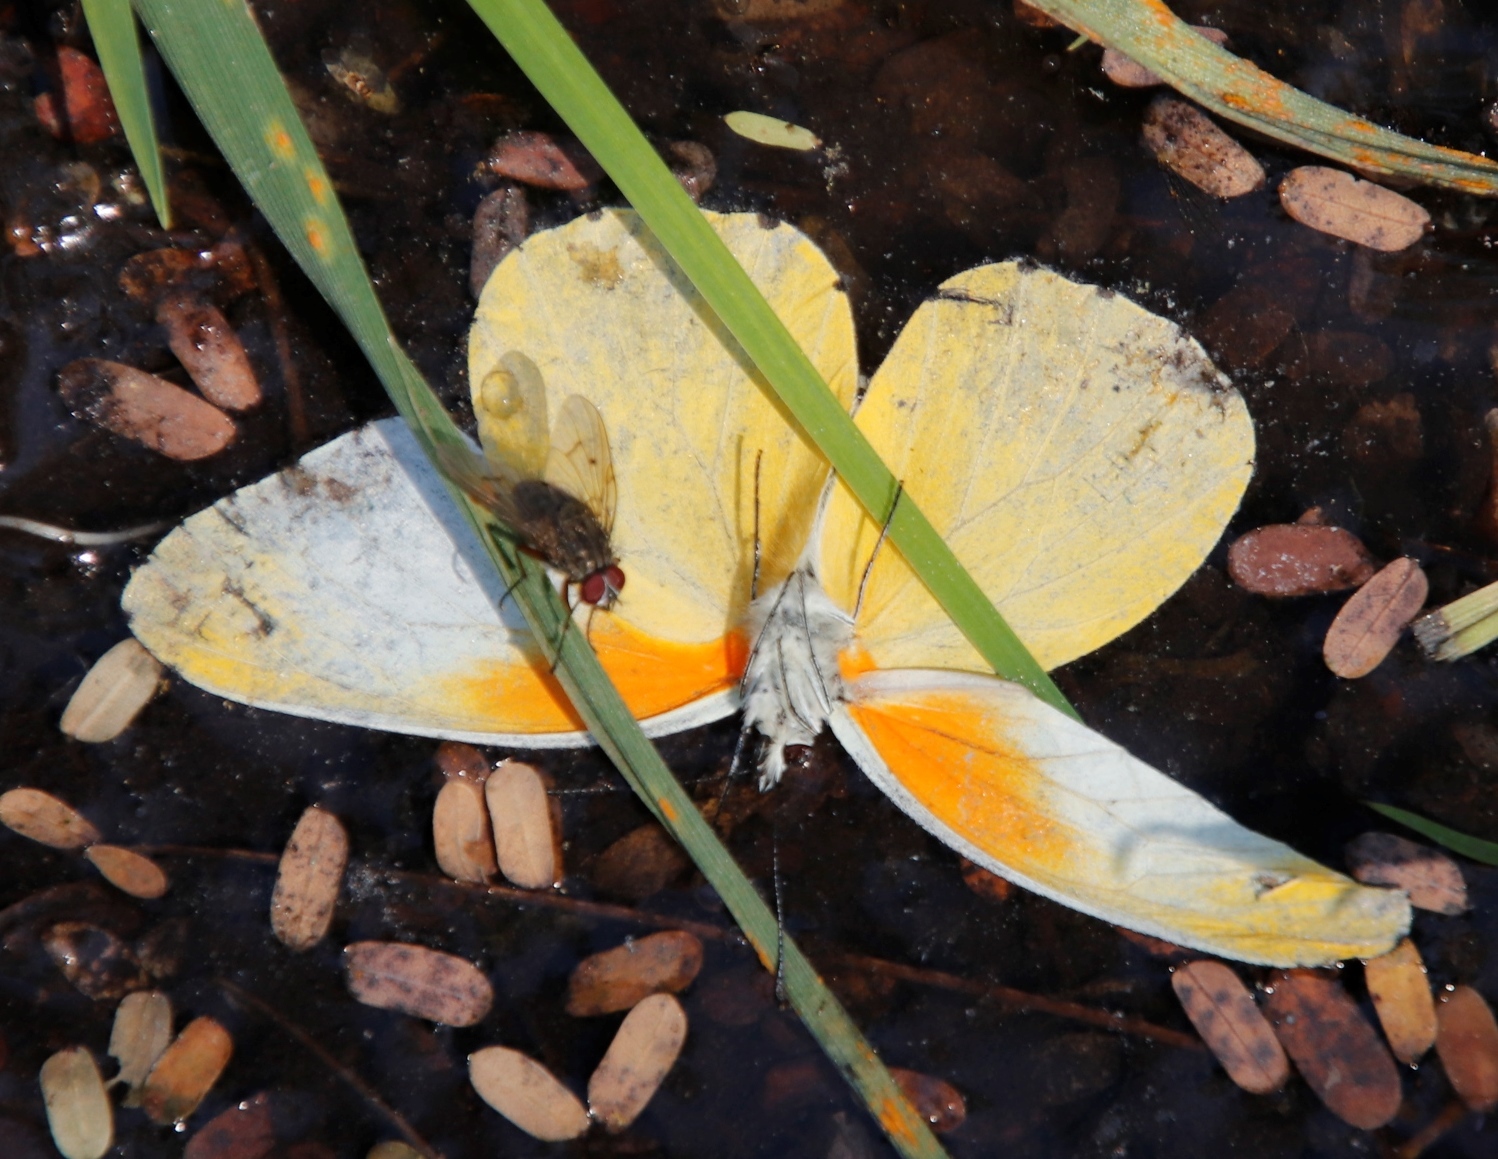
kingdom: Animalia
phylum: Arthropoda
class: Insecta
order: Lepidoptera
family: Pieridae
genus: Mylothris
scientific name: Mylothris agathina
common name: Eastern dotted border
